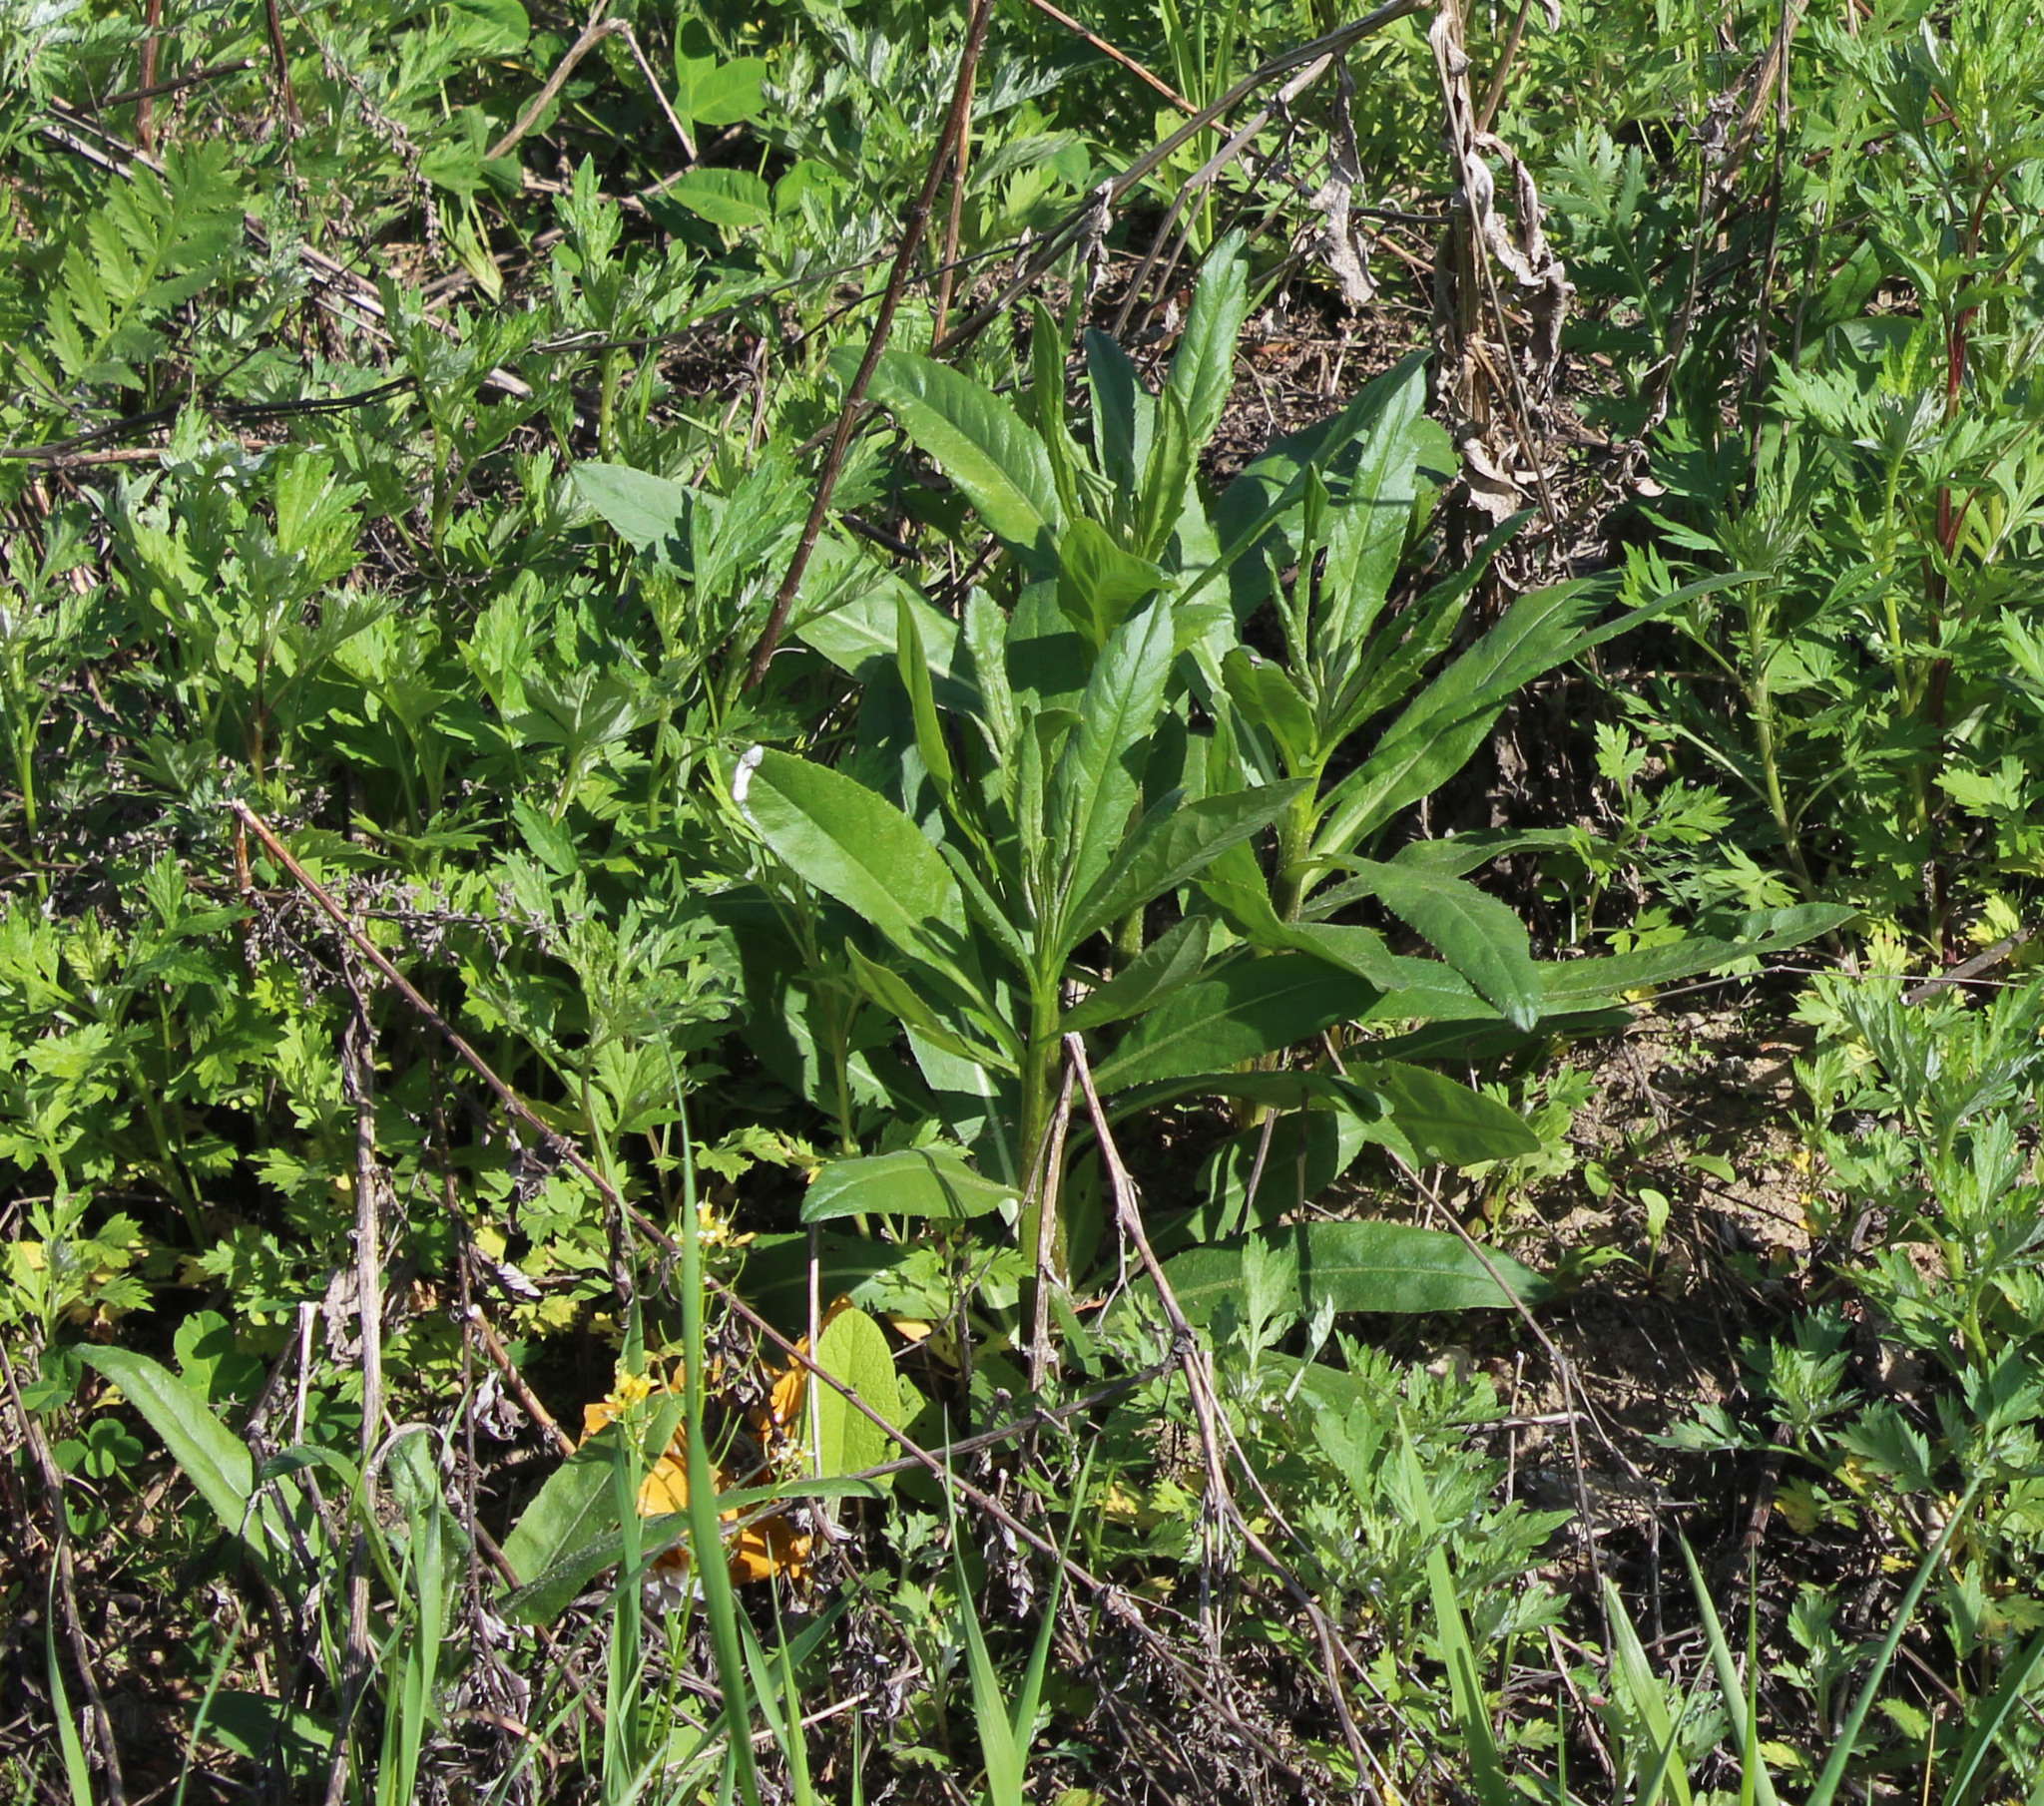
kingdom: Plantae
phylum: Tracheophyta
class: Magnoliopsida
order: Asterales
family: Asteraceae
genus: Cirsium
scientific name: Cirsium arvense
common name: Creeping thistle
